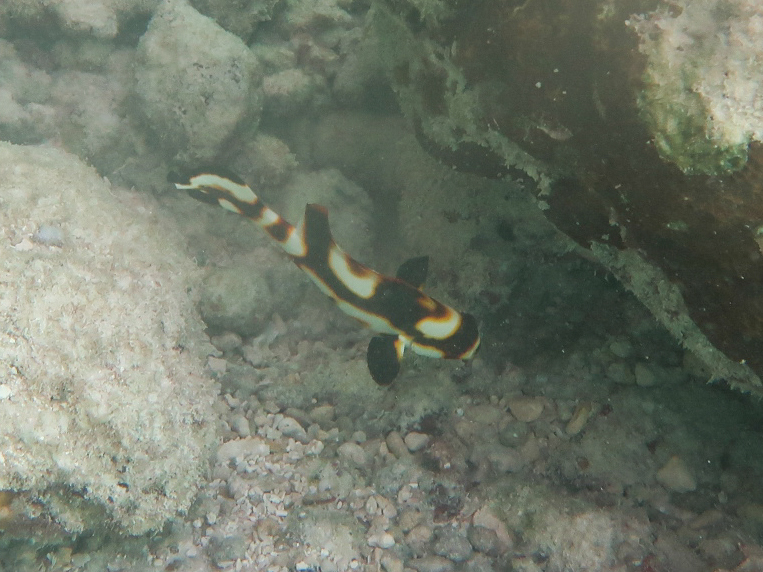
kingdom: Animalia
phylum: Chordata
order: Perciformes
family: Haemulidae
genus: Plectorhinchus
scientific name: Plectorhinchus vittatus
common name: Oriental sweetlips
